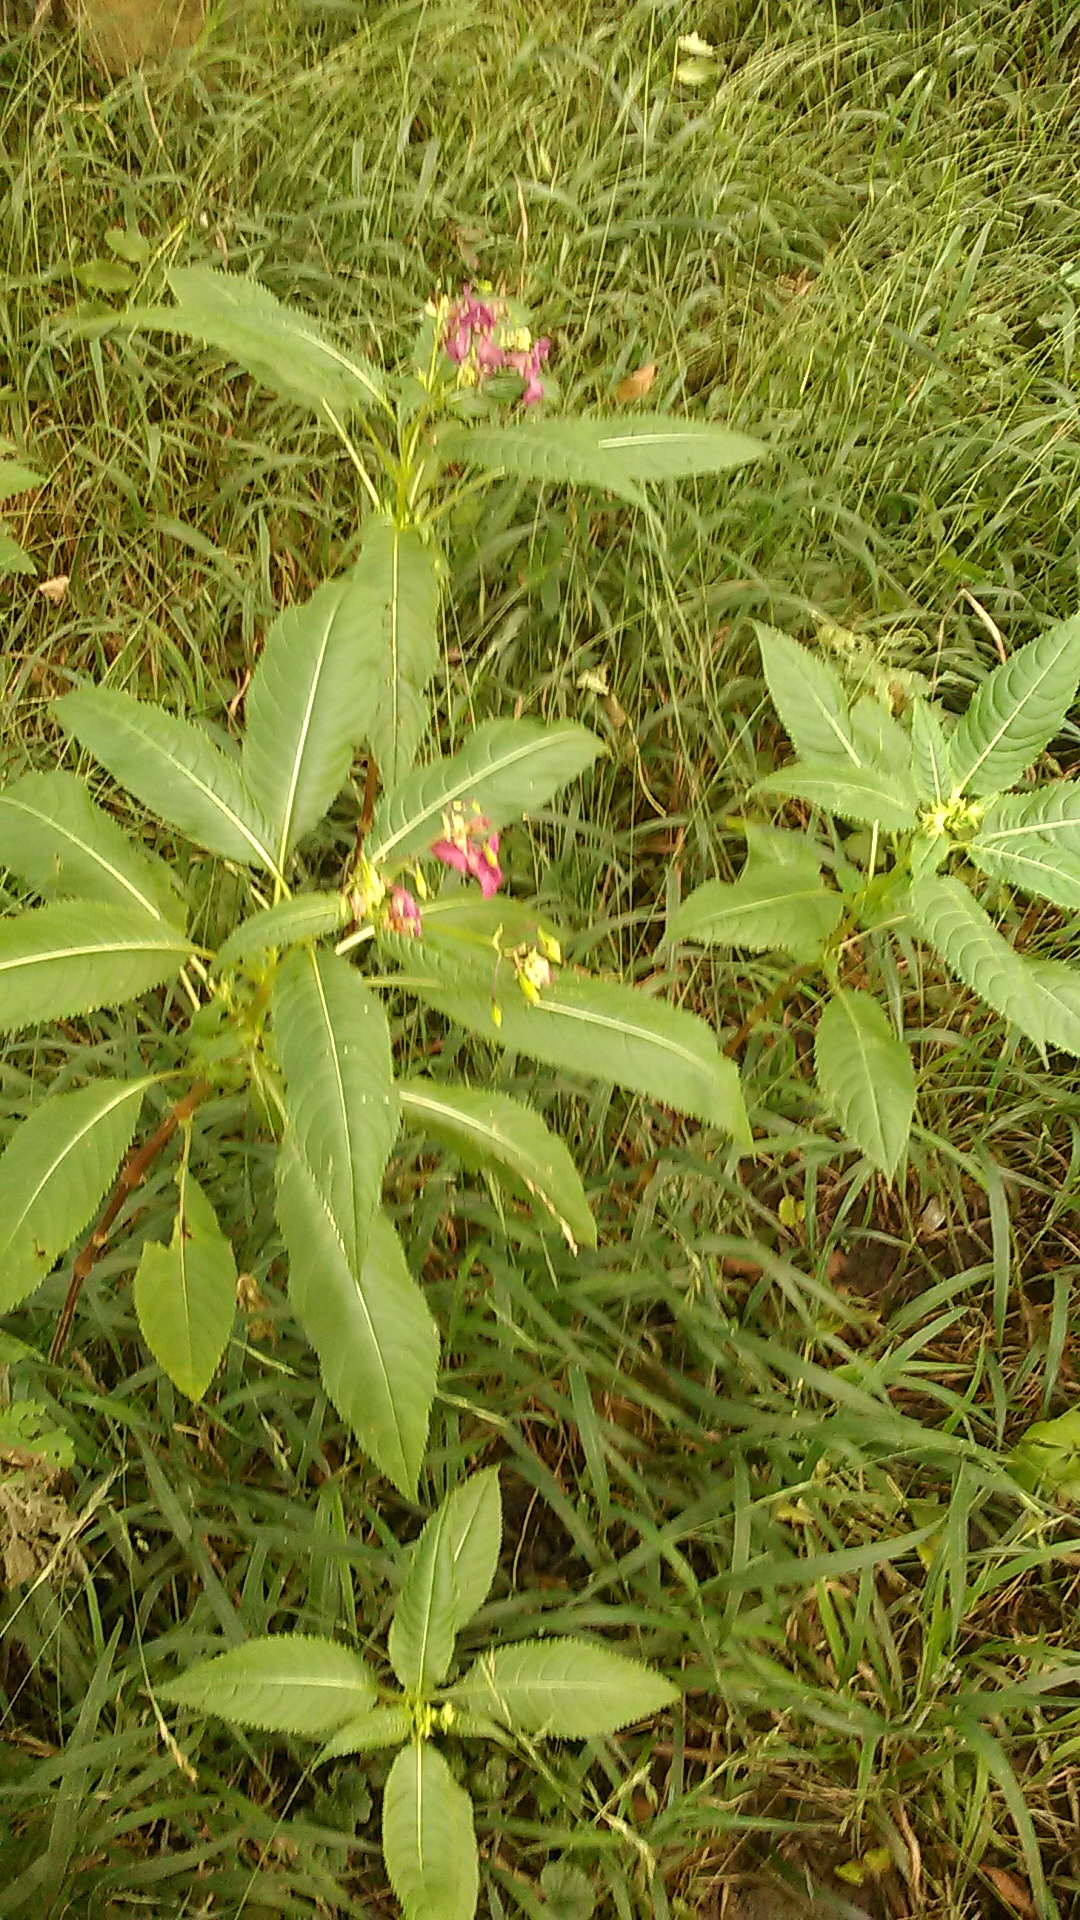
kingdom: Plantae
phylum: Tracheophyta
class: Magnoliopsida
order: Ericales
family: Balsaminaceae
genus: Impatiens
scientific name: Impatiens glandulifera
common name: Himalayan balsam
